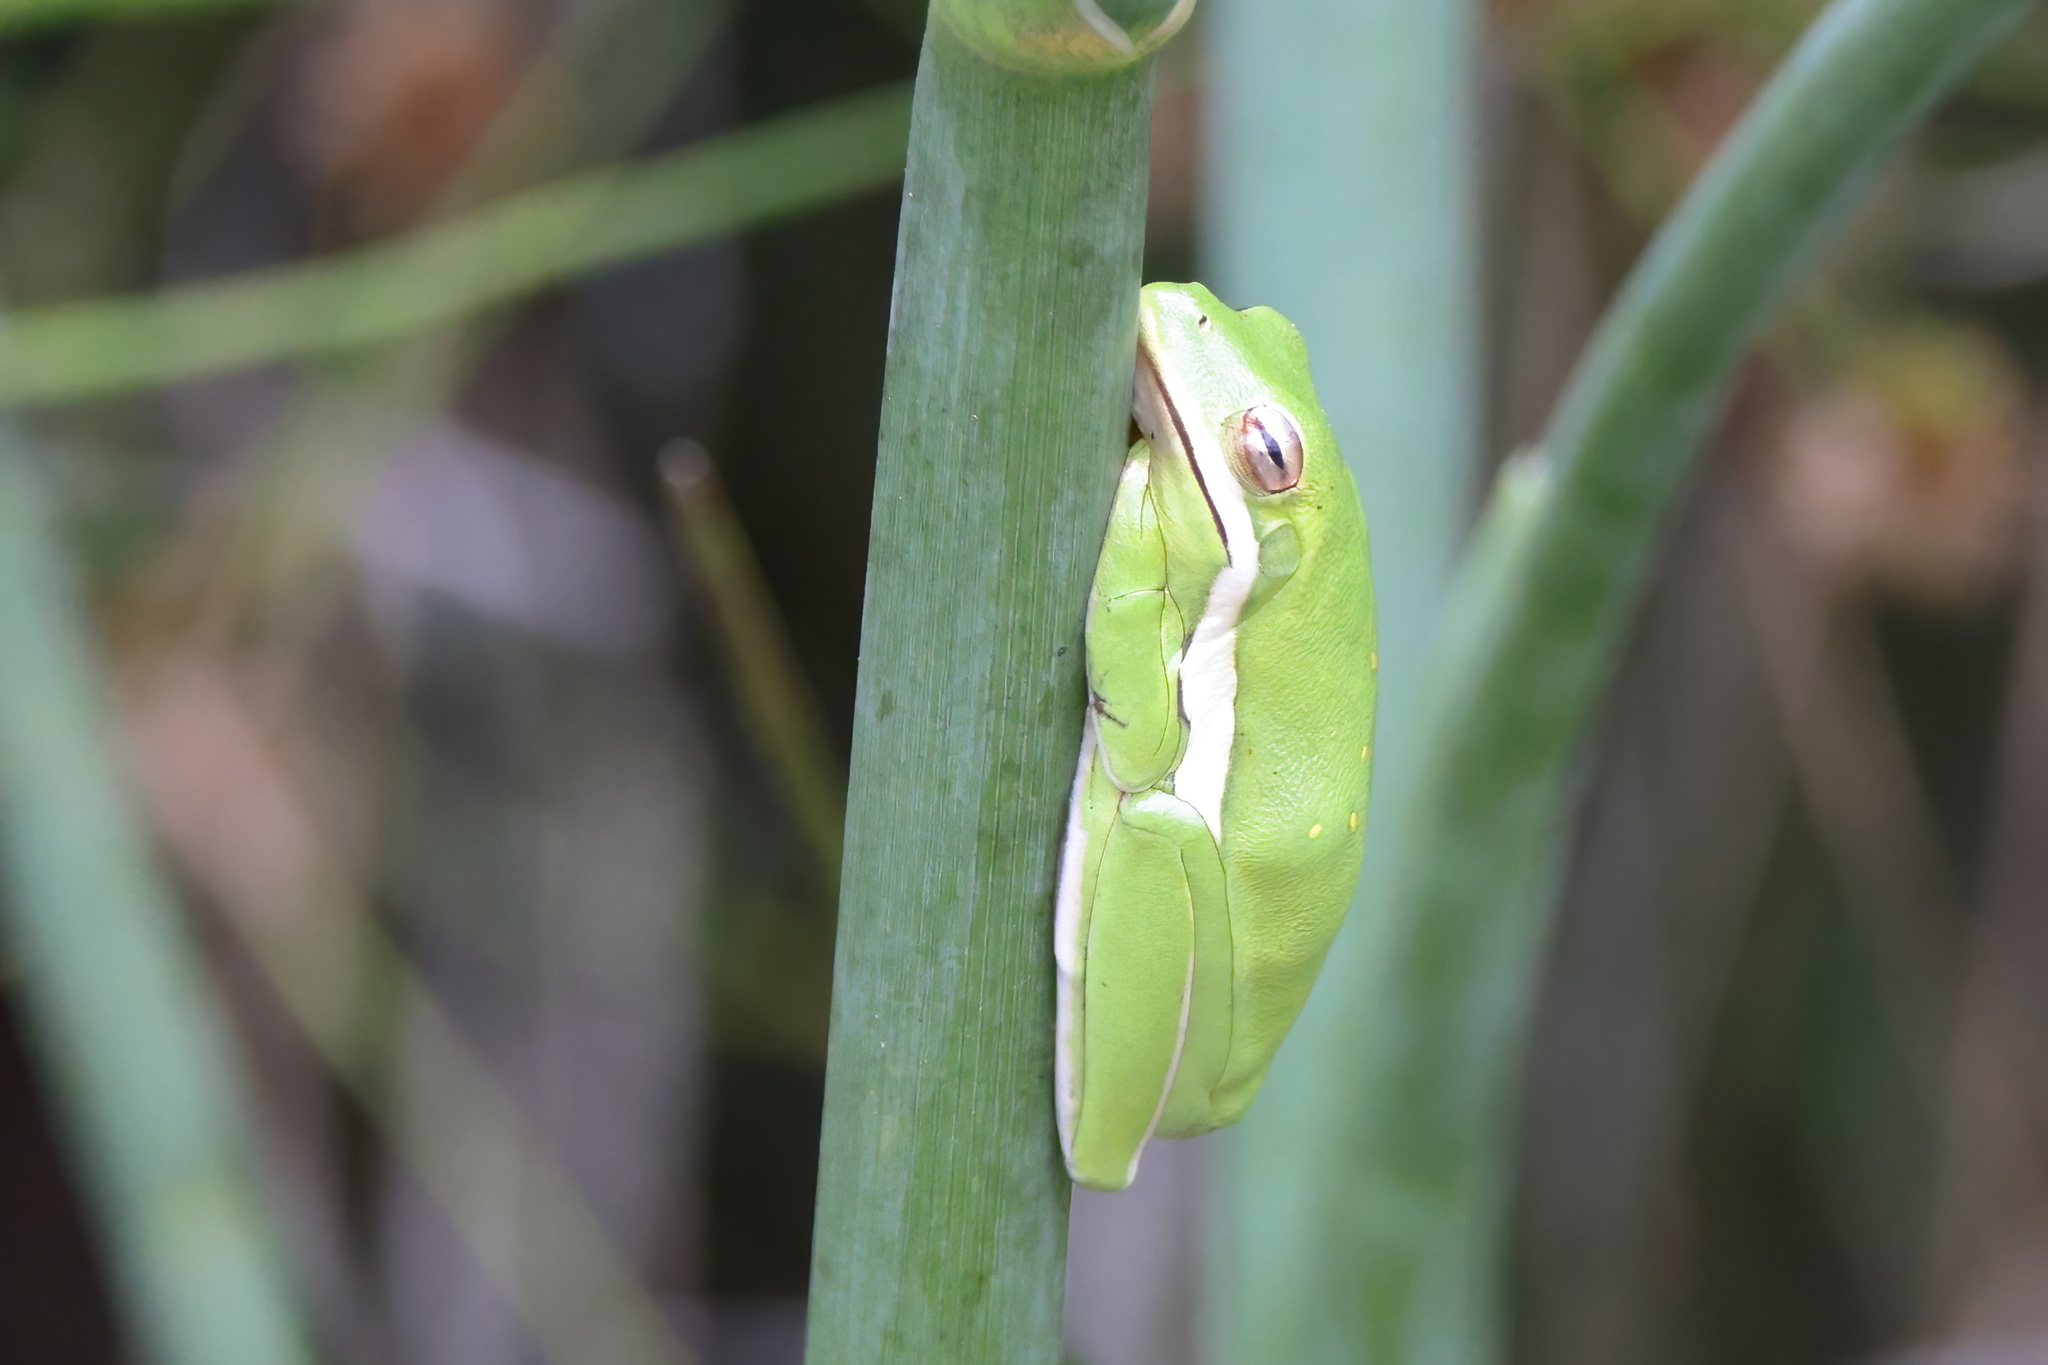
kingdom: Animalia
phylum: Chordata
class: Amphibia
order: Anura
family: Hylidae
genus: Dryophytes
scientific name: Dryophytes cinereus
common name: Green treefrog
